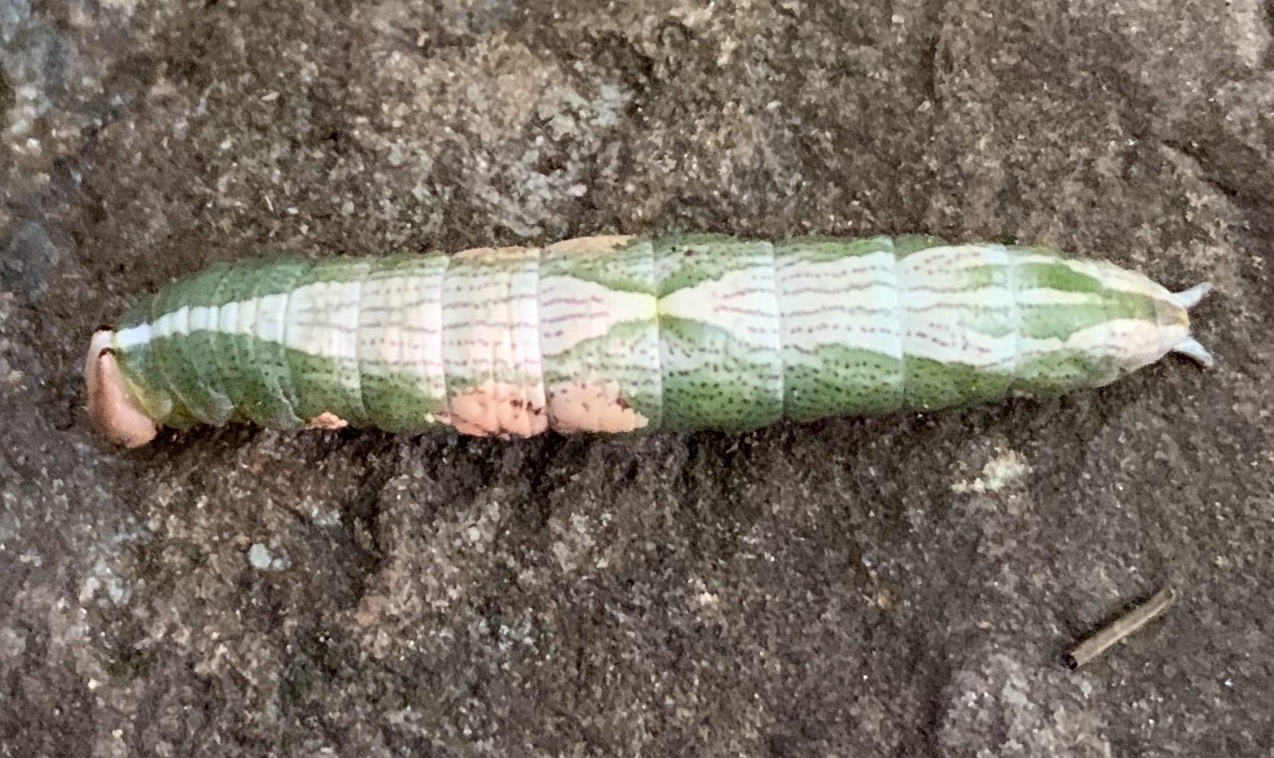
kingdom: Animalia
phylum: Arthropoda
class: Insecta
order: Lepidoptera
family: Notodontidae
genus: Disphragis
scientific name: Disphragis Cecrita biundata
